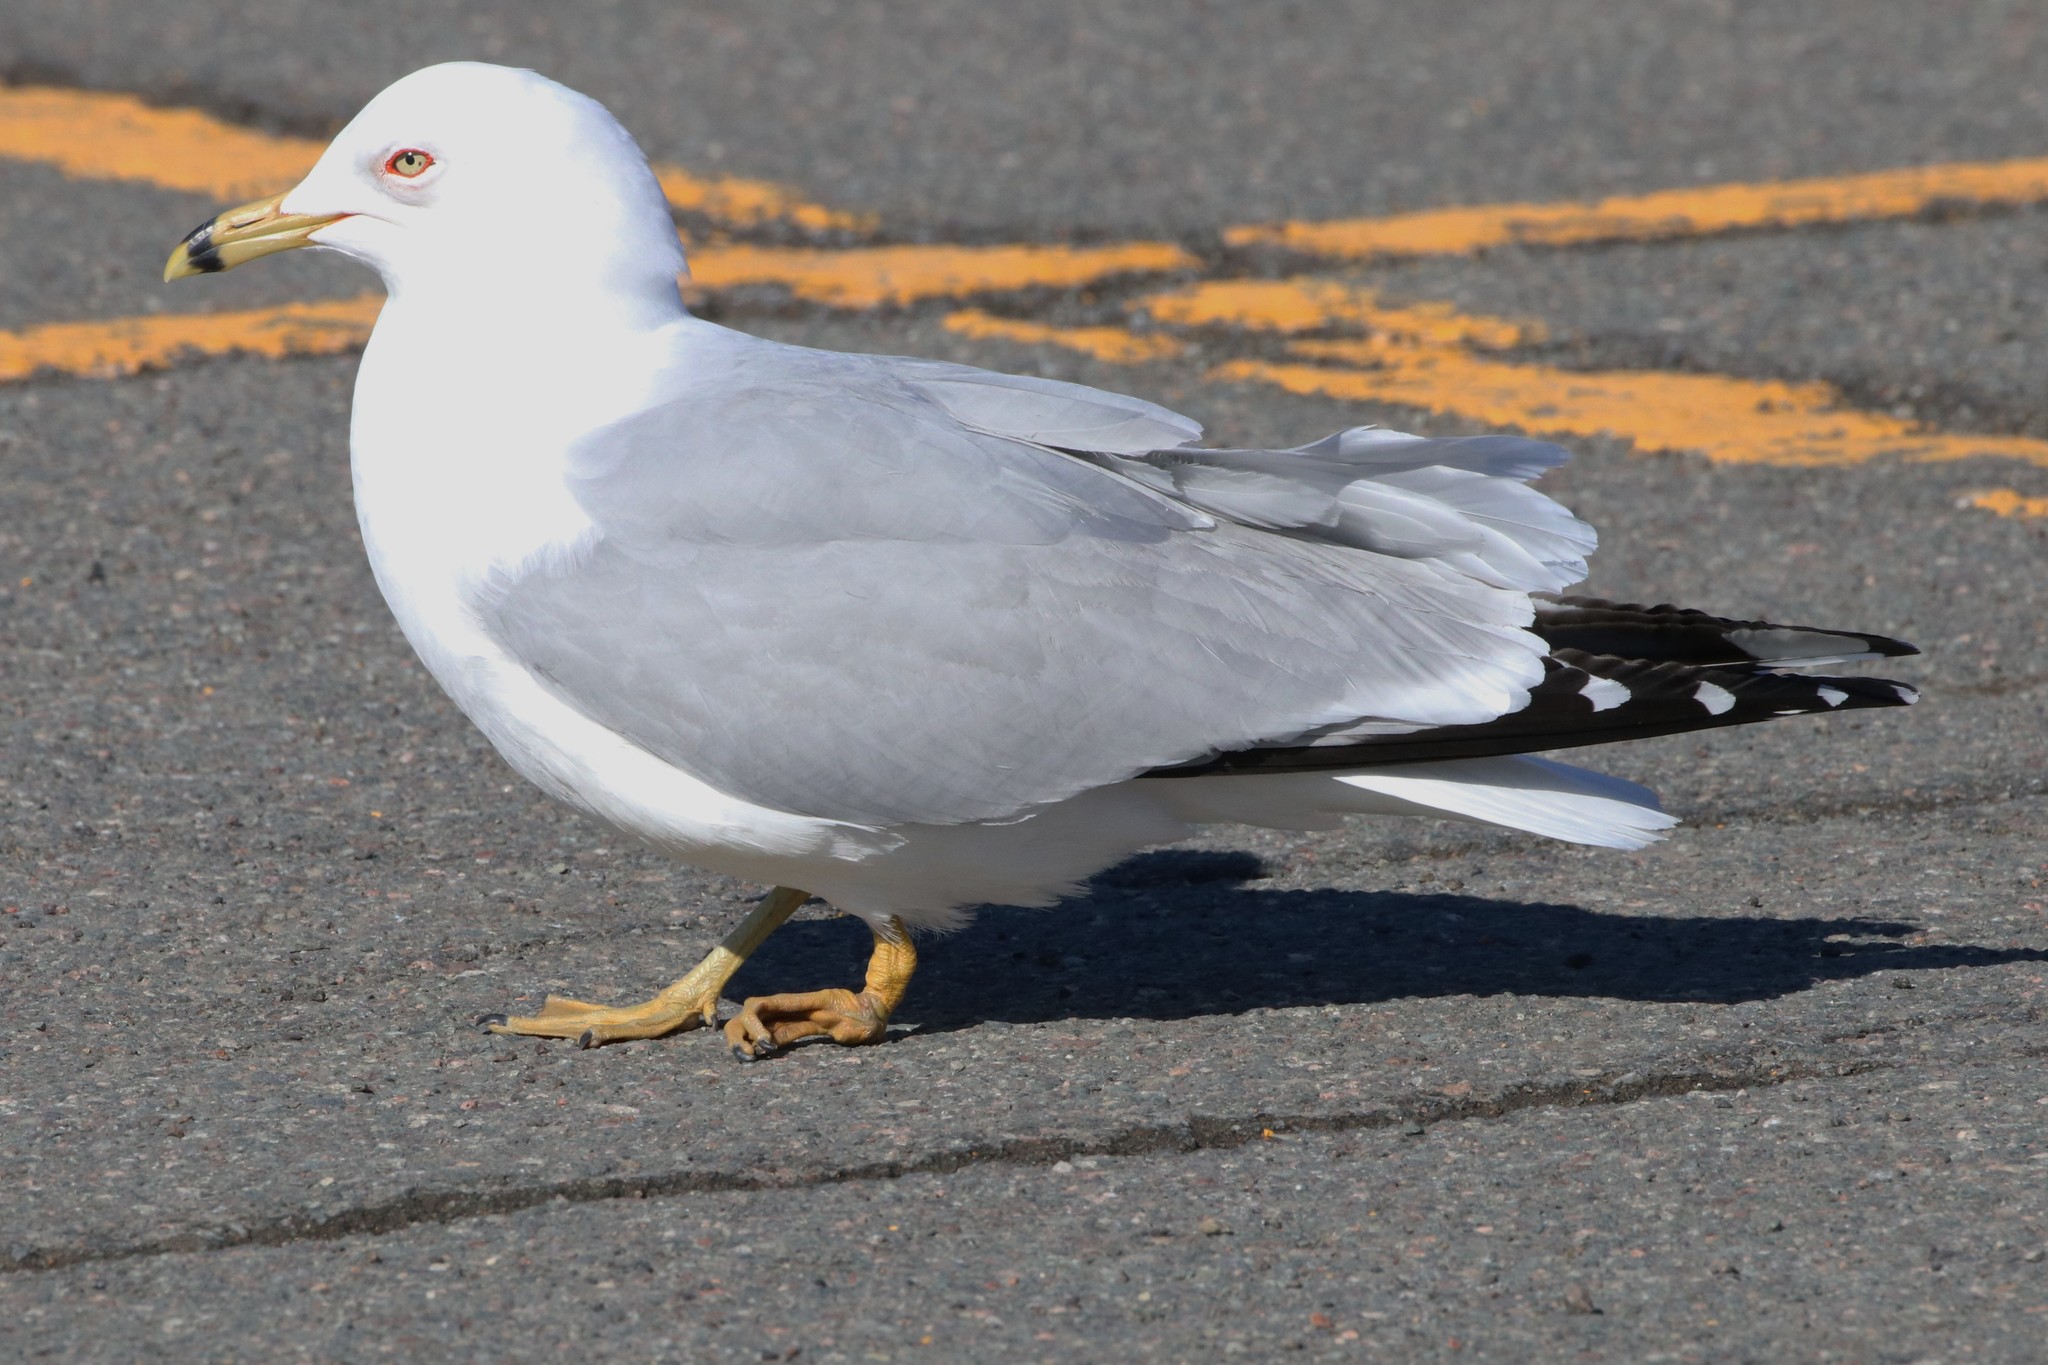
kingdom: Animalia
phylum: Chordata
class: Aves
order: Charadriiformes
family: Laridae
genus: Larus
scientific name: Larus delawarensis
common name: Ring-billed gull
